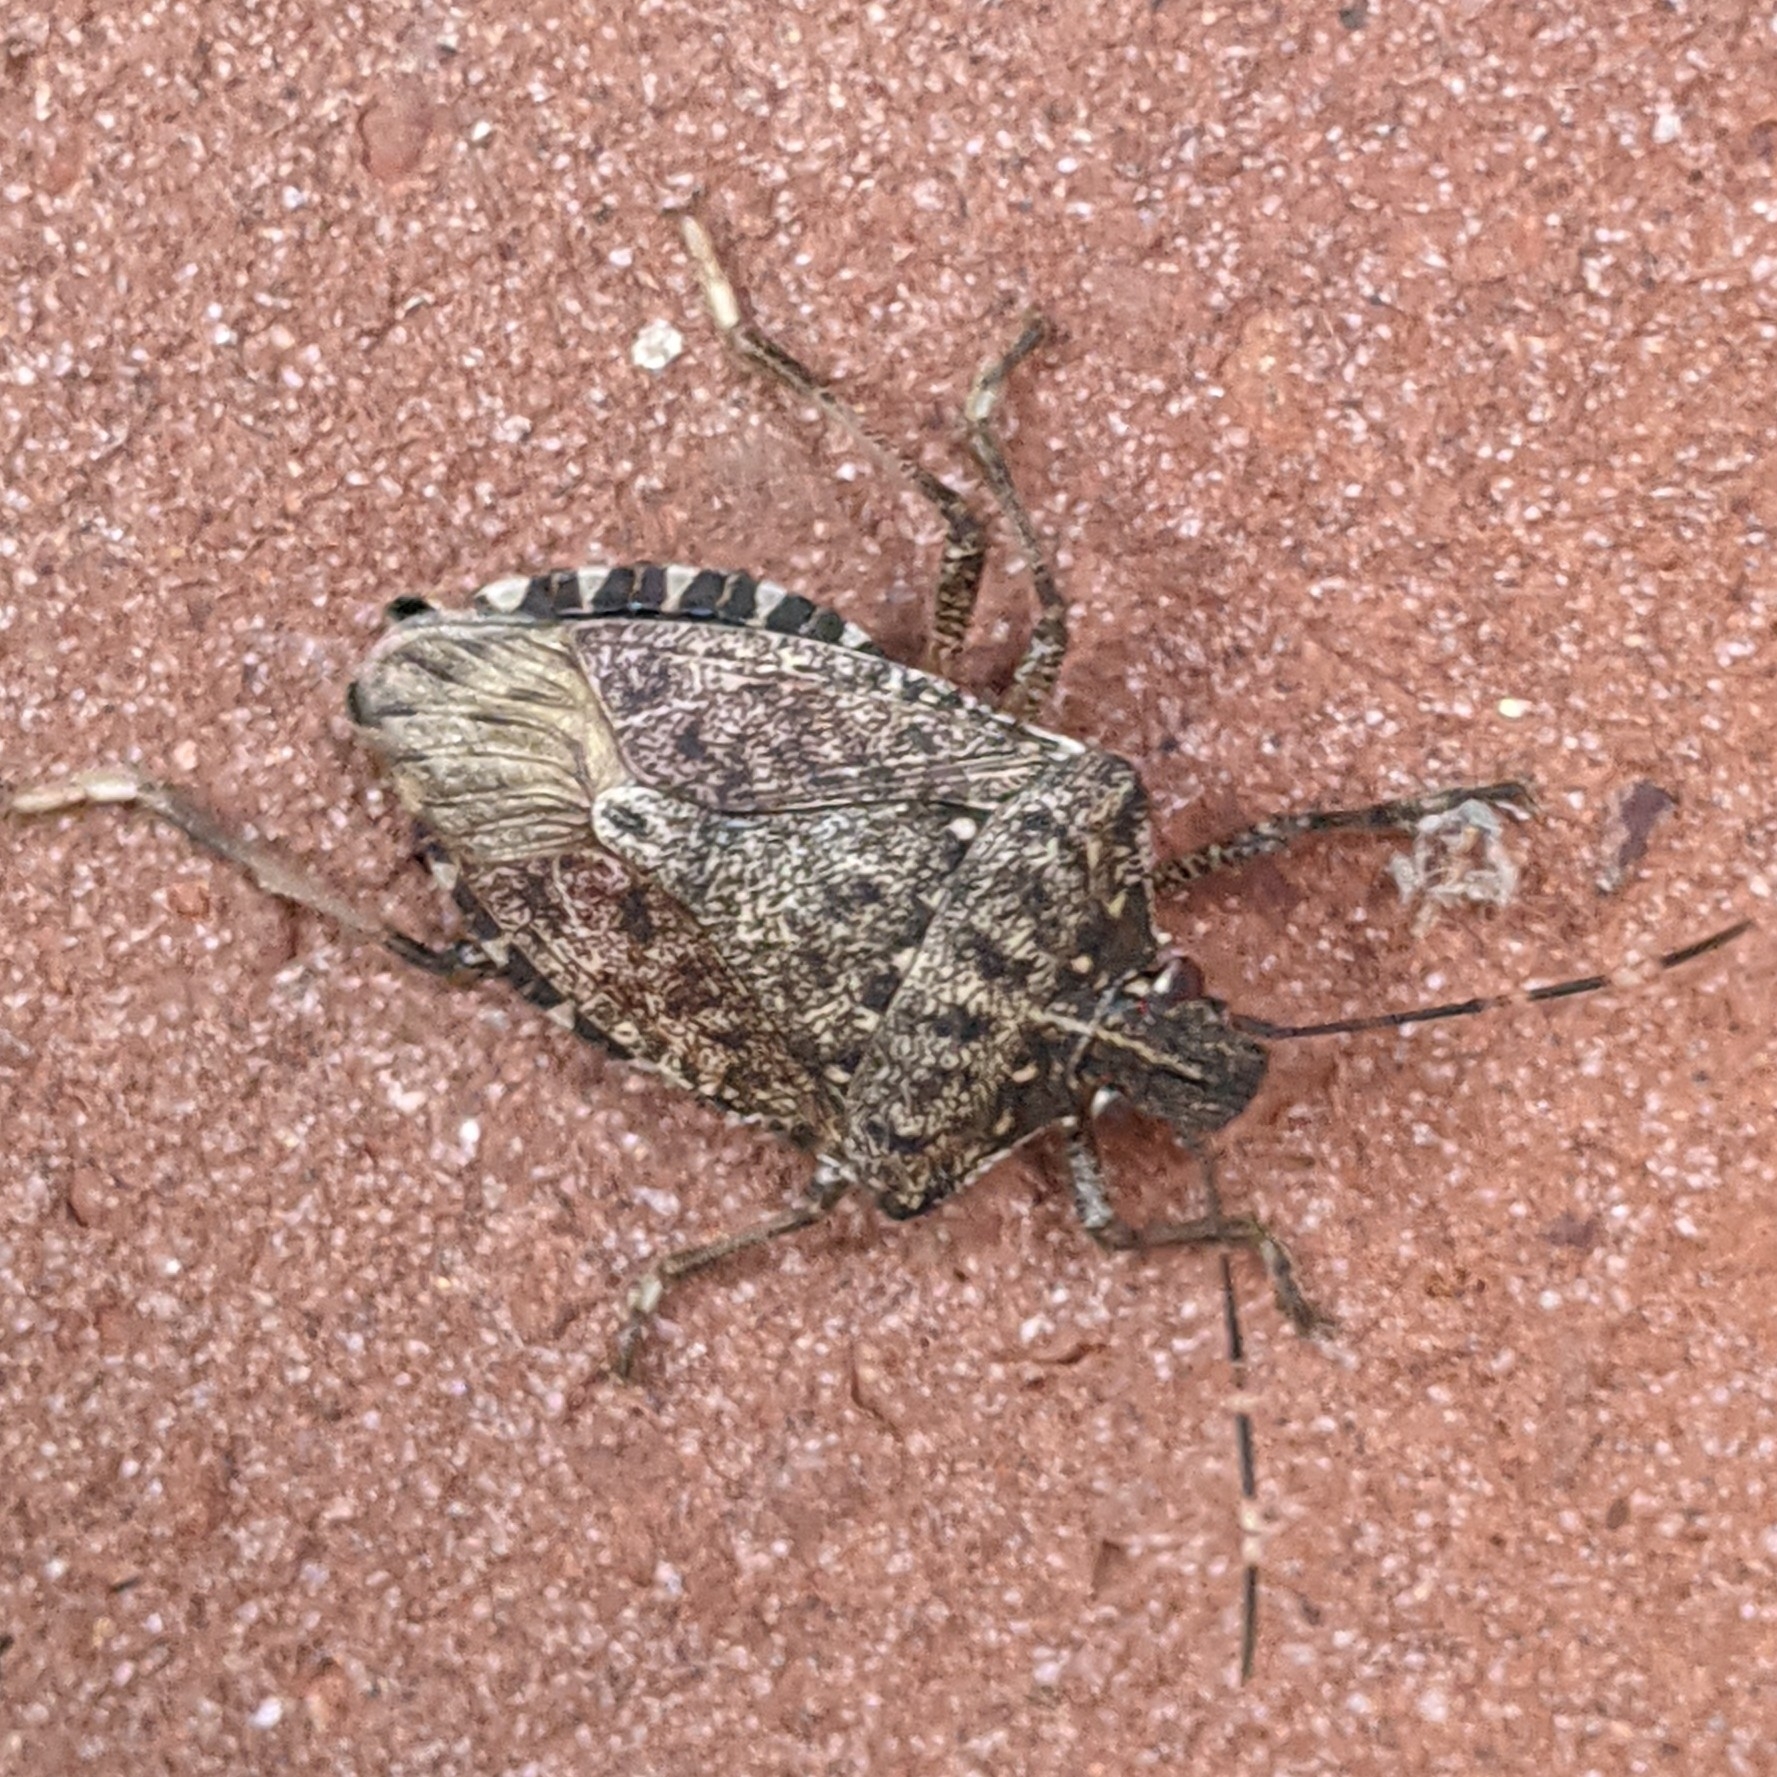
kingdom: Animalia
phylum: Arthropoda
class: Insecta
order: Hemiptera
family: Pentatomidae
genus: Halyomorpha
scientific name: Halyomorpha halys
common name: Brown marmorated stink bug
